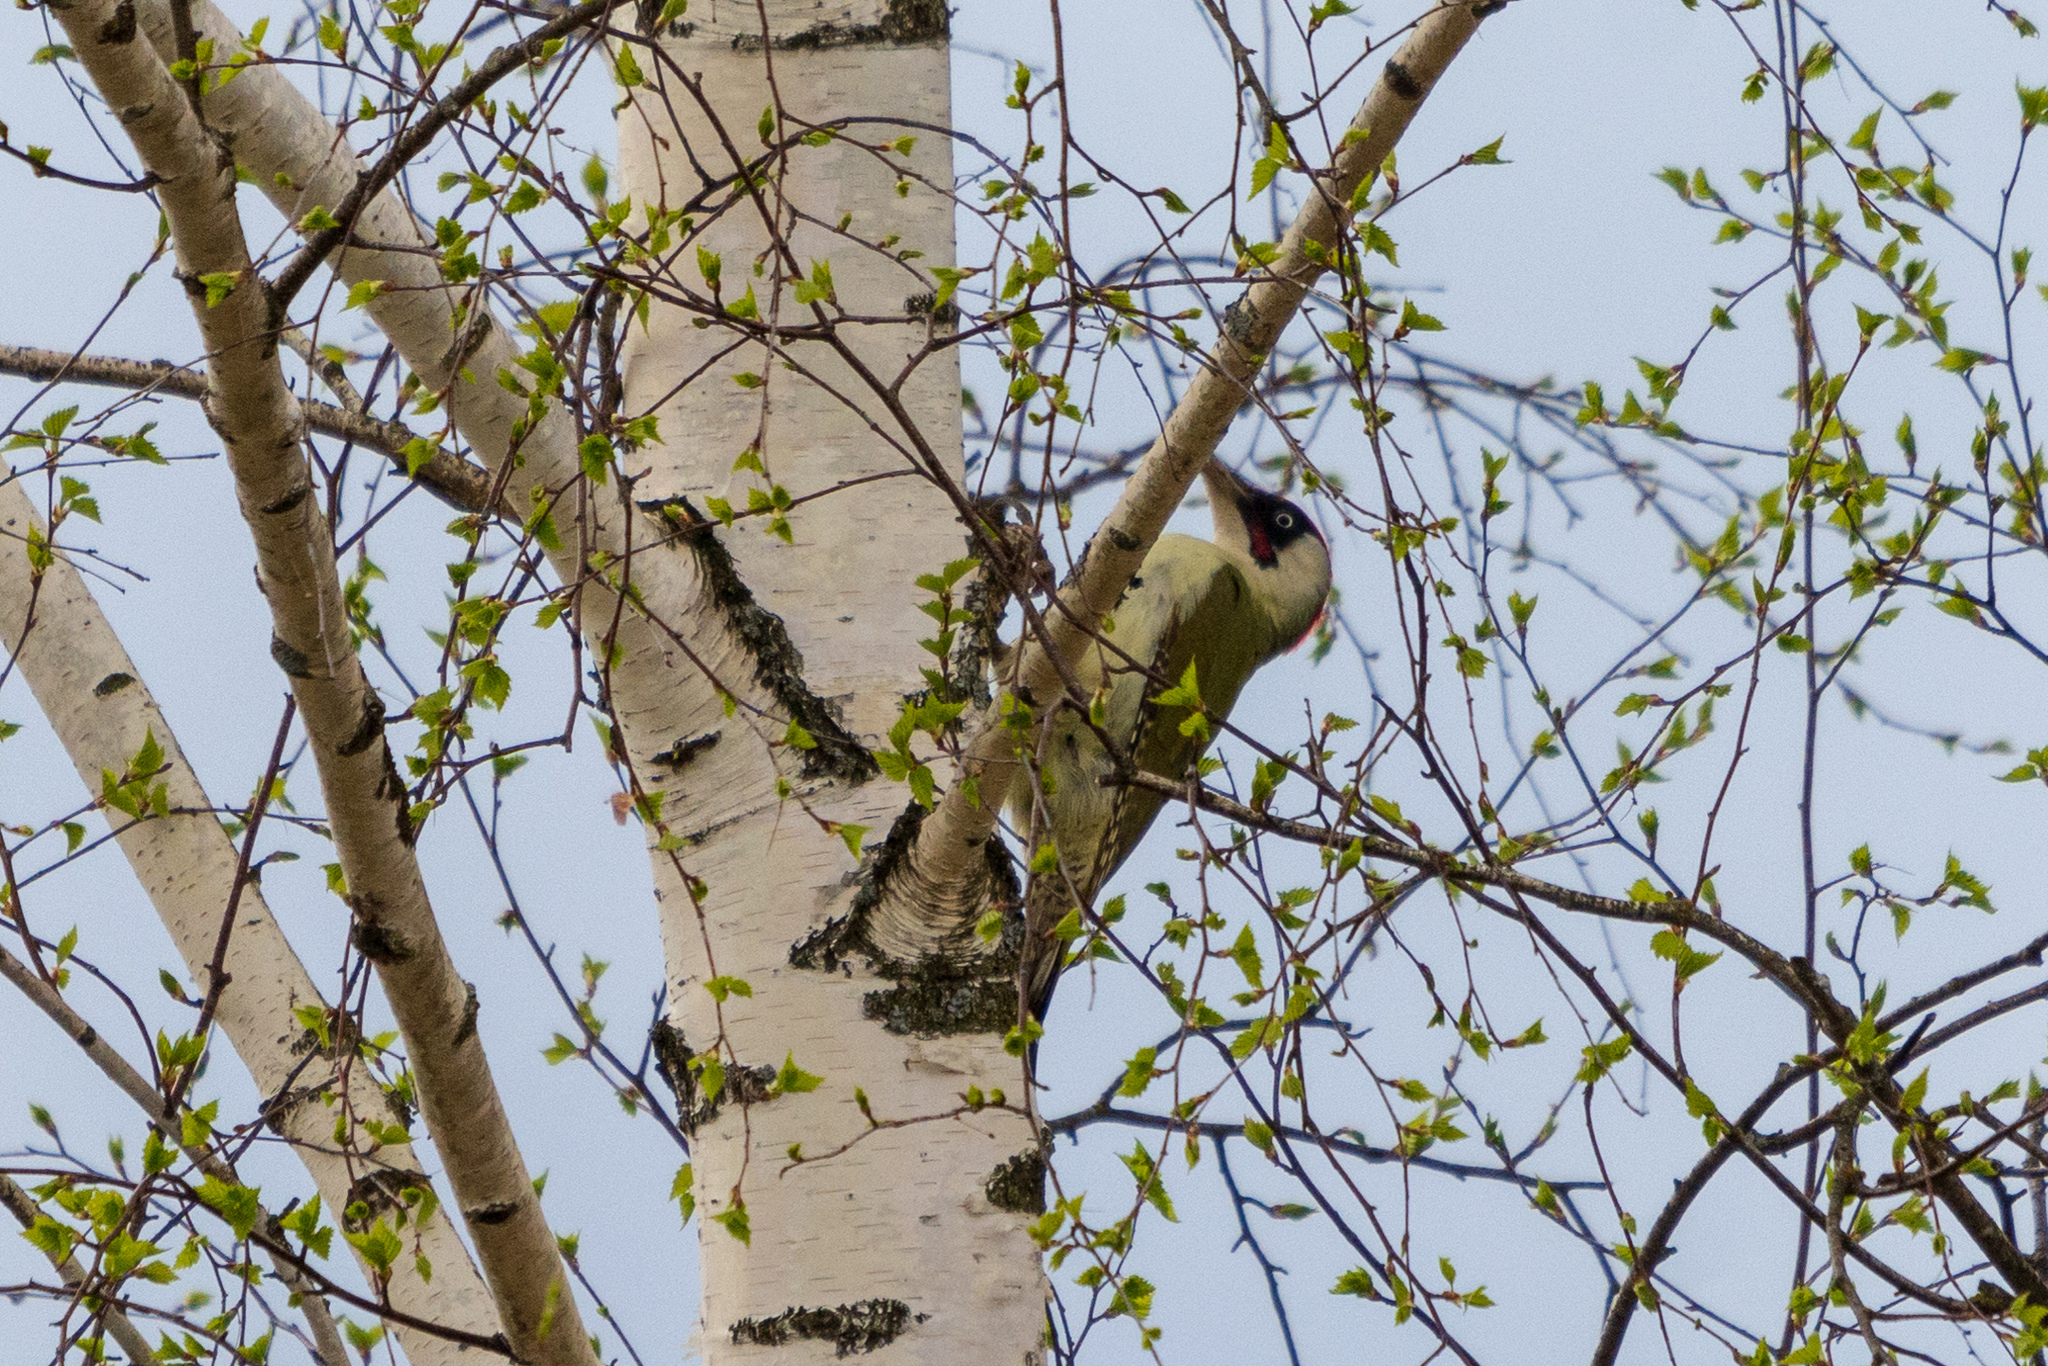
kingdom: Animalia
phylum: Chordata
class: Aves
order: Piciformes
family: Picidae
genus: Picus
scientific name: Picus viridis
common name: European green woodpecker
